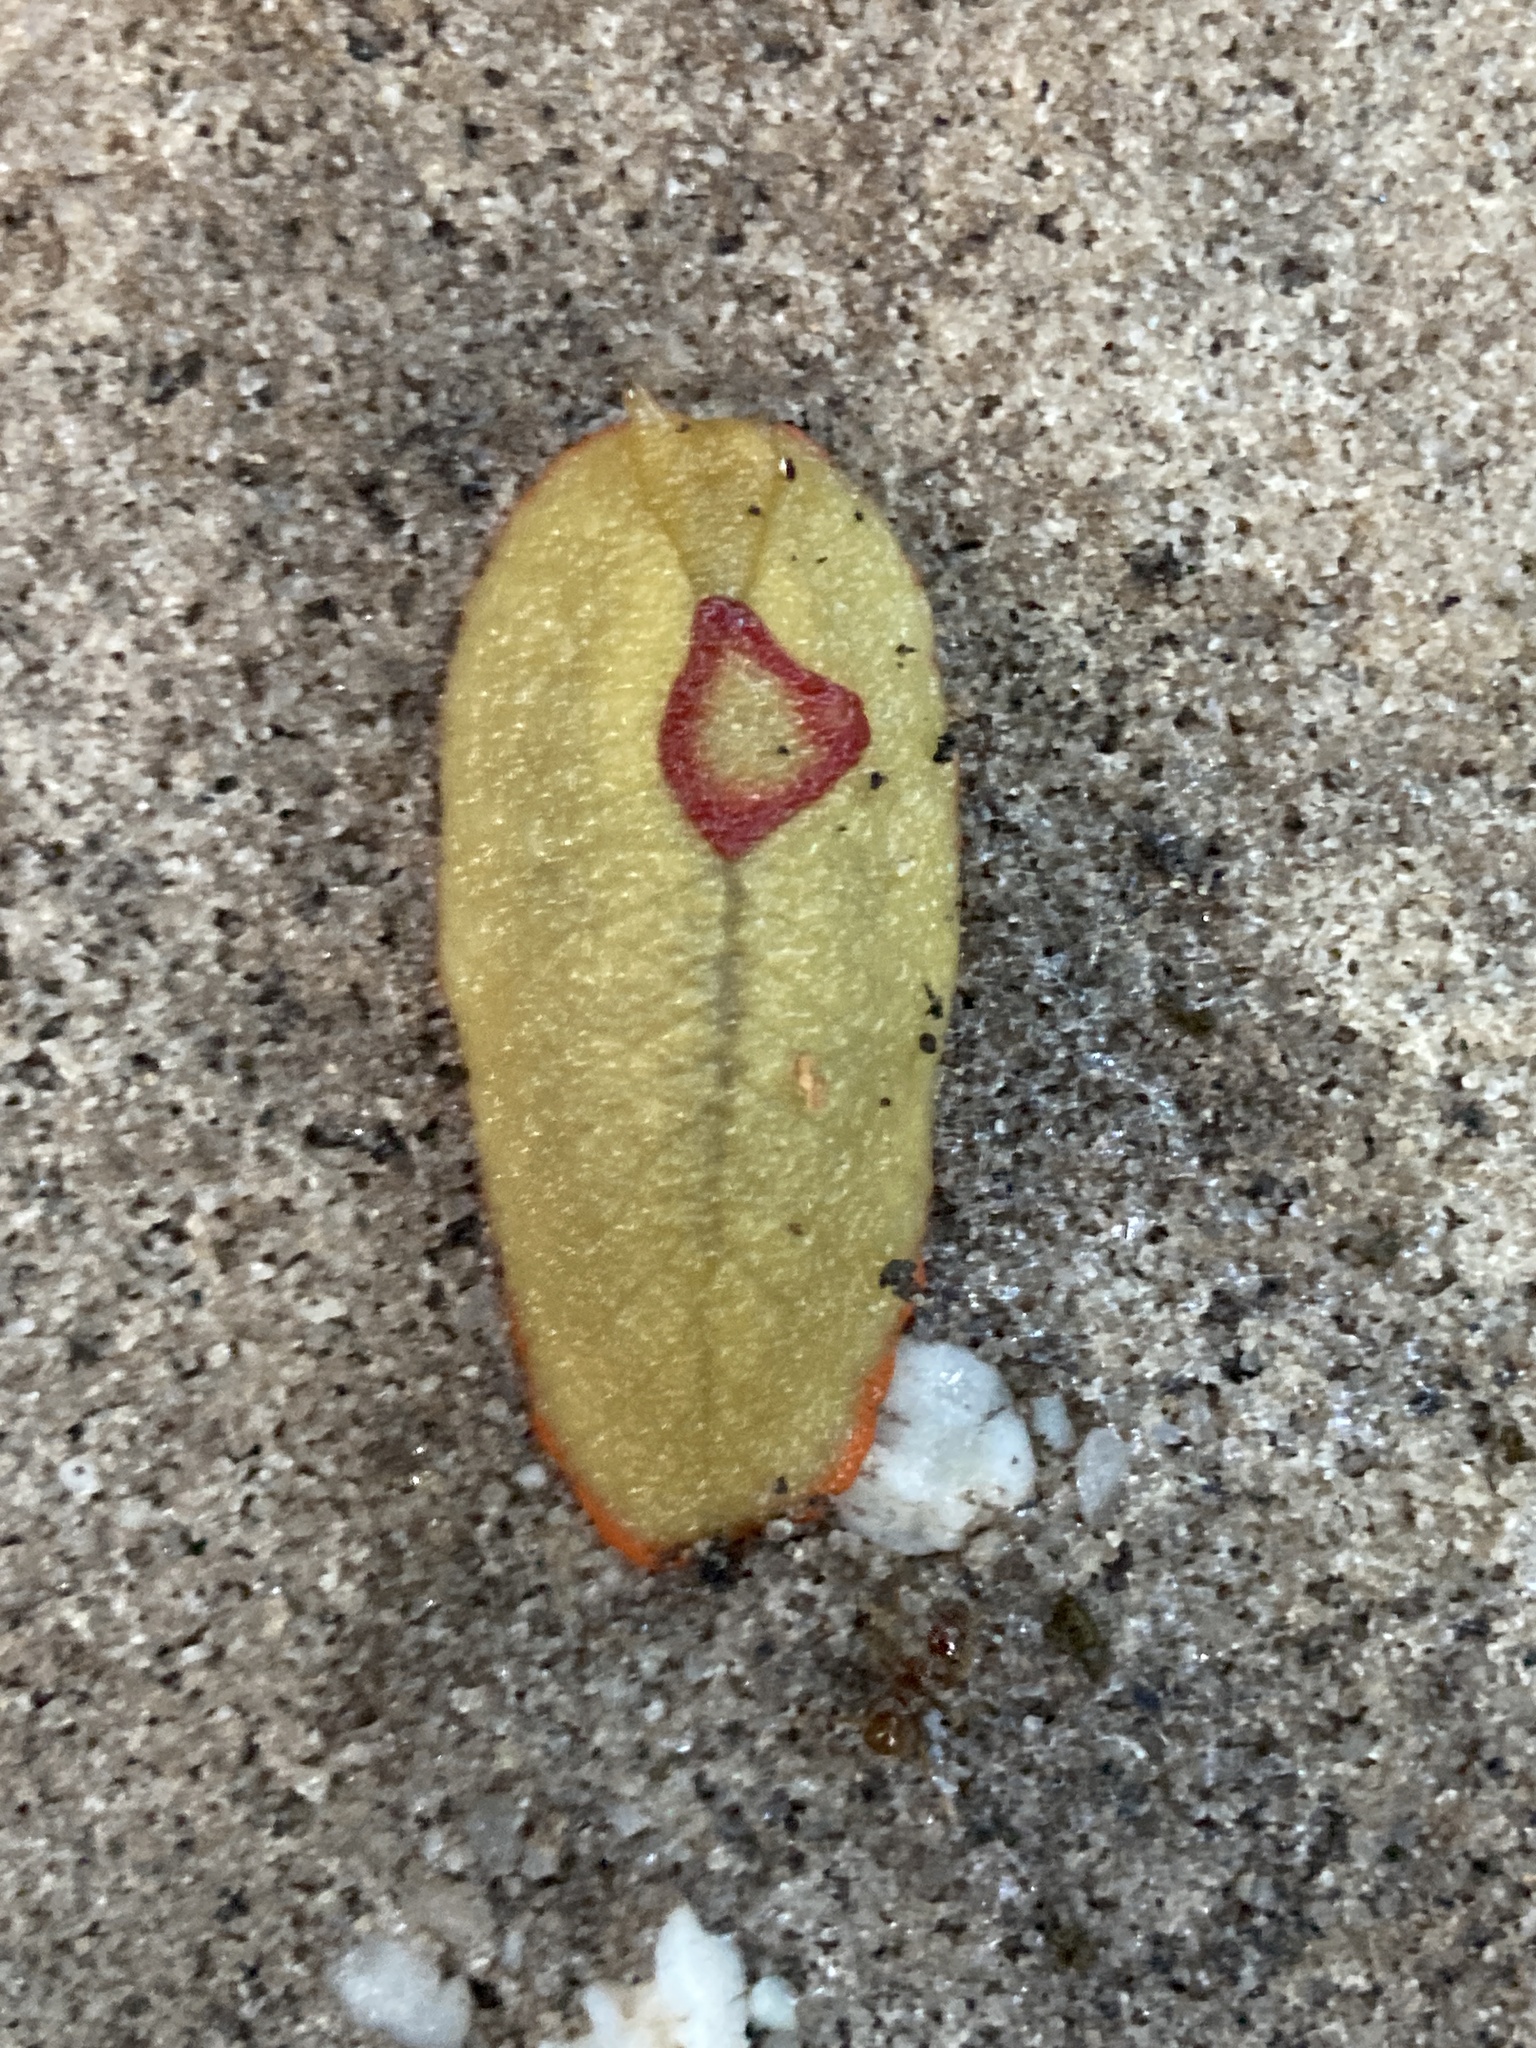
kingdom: Animalia
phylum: Mollusca
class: Gastropoda
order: Stylommatophora
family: Athoracophoridae
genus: Triboniophorus
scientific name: Triboniophorus graeffei
